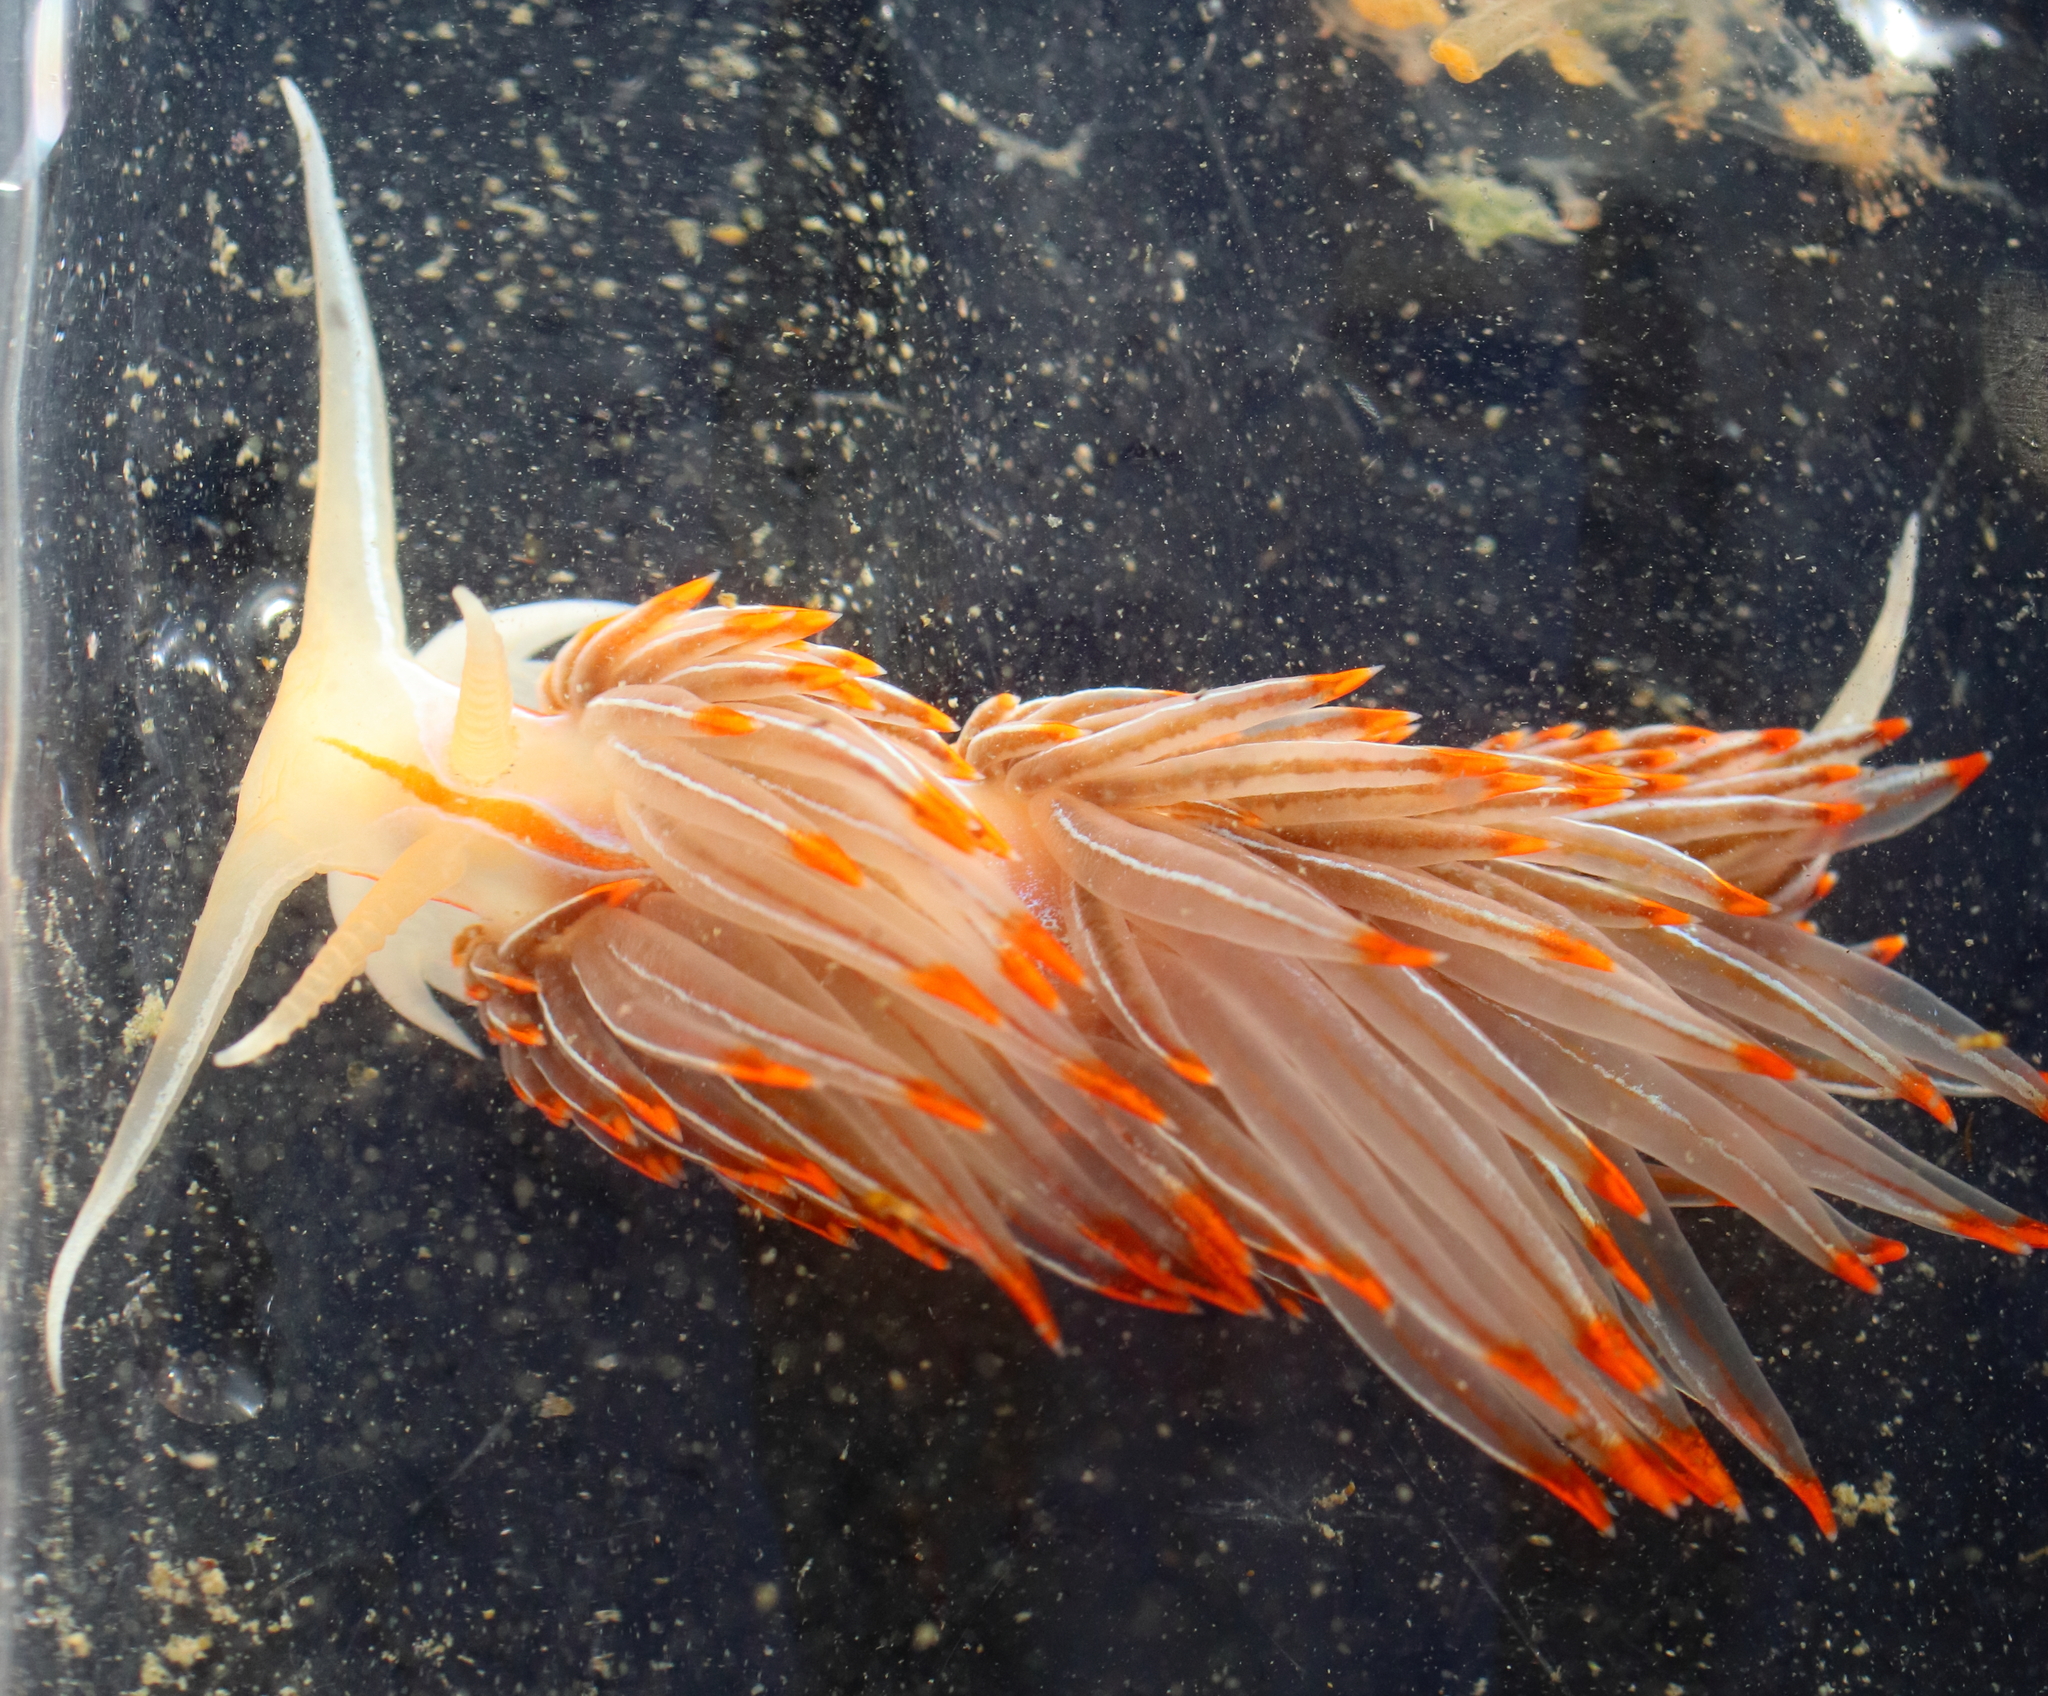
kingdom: Animalia
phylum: Mollusca
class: Gastropoda
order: Nudibranchia
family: Myrrhinidae
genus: Hermissenda
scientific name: Hermissenda crassicornis
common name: Hermissenda
